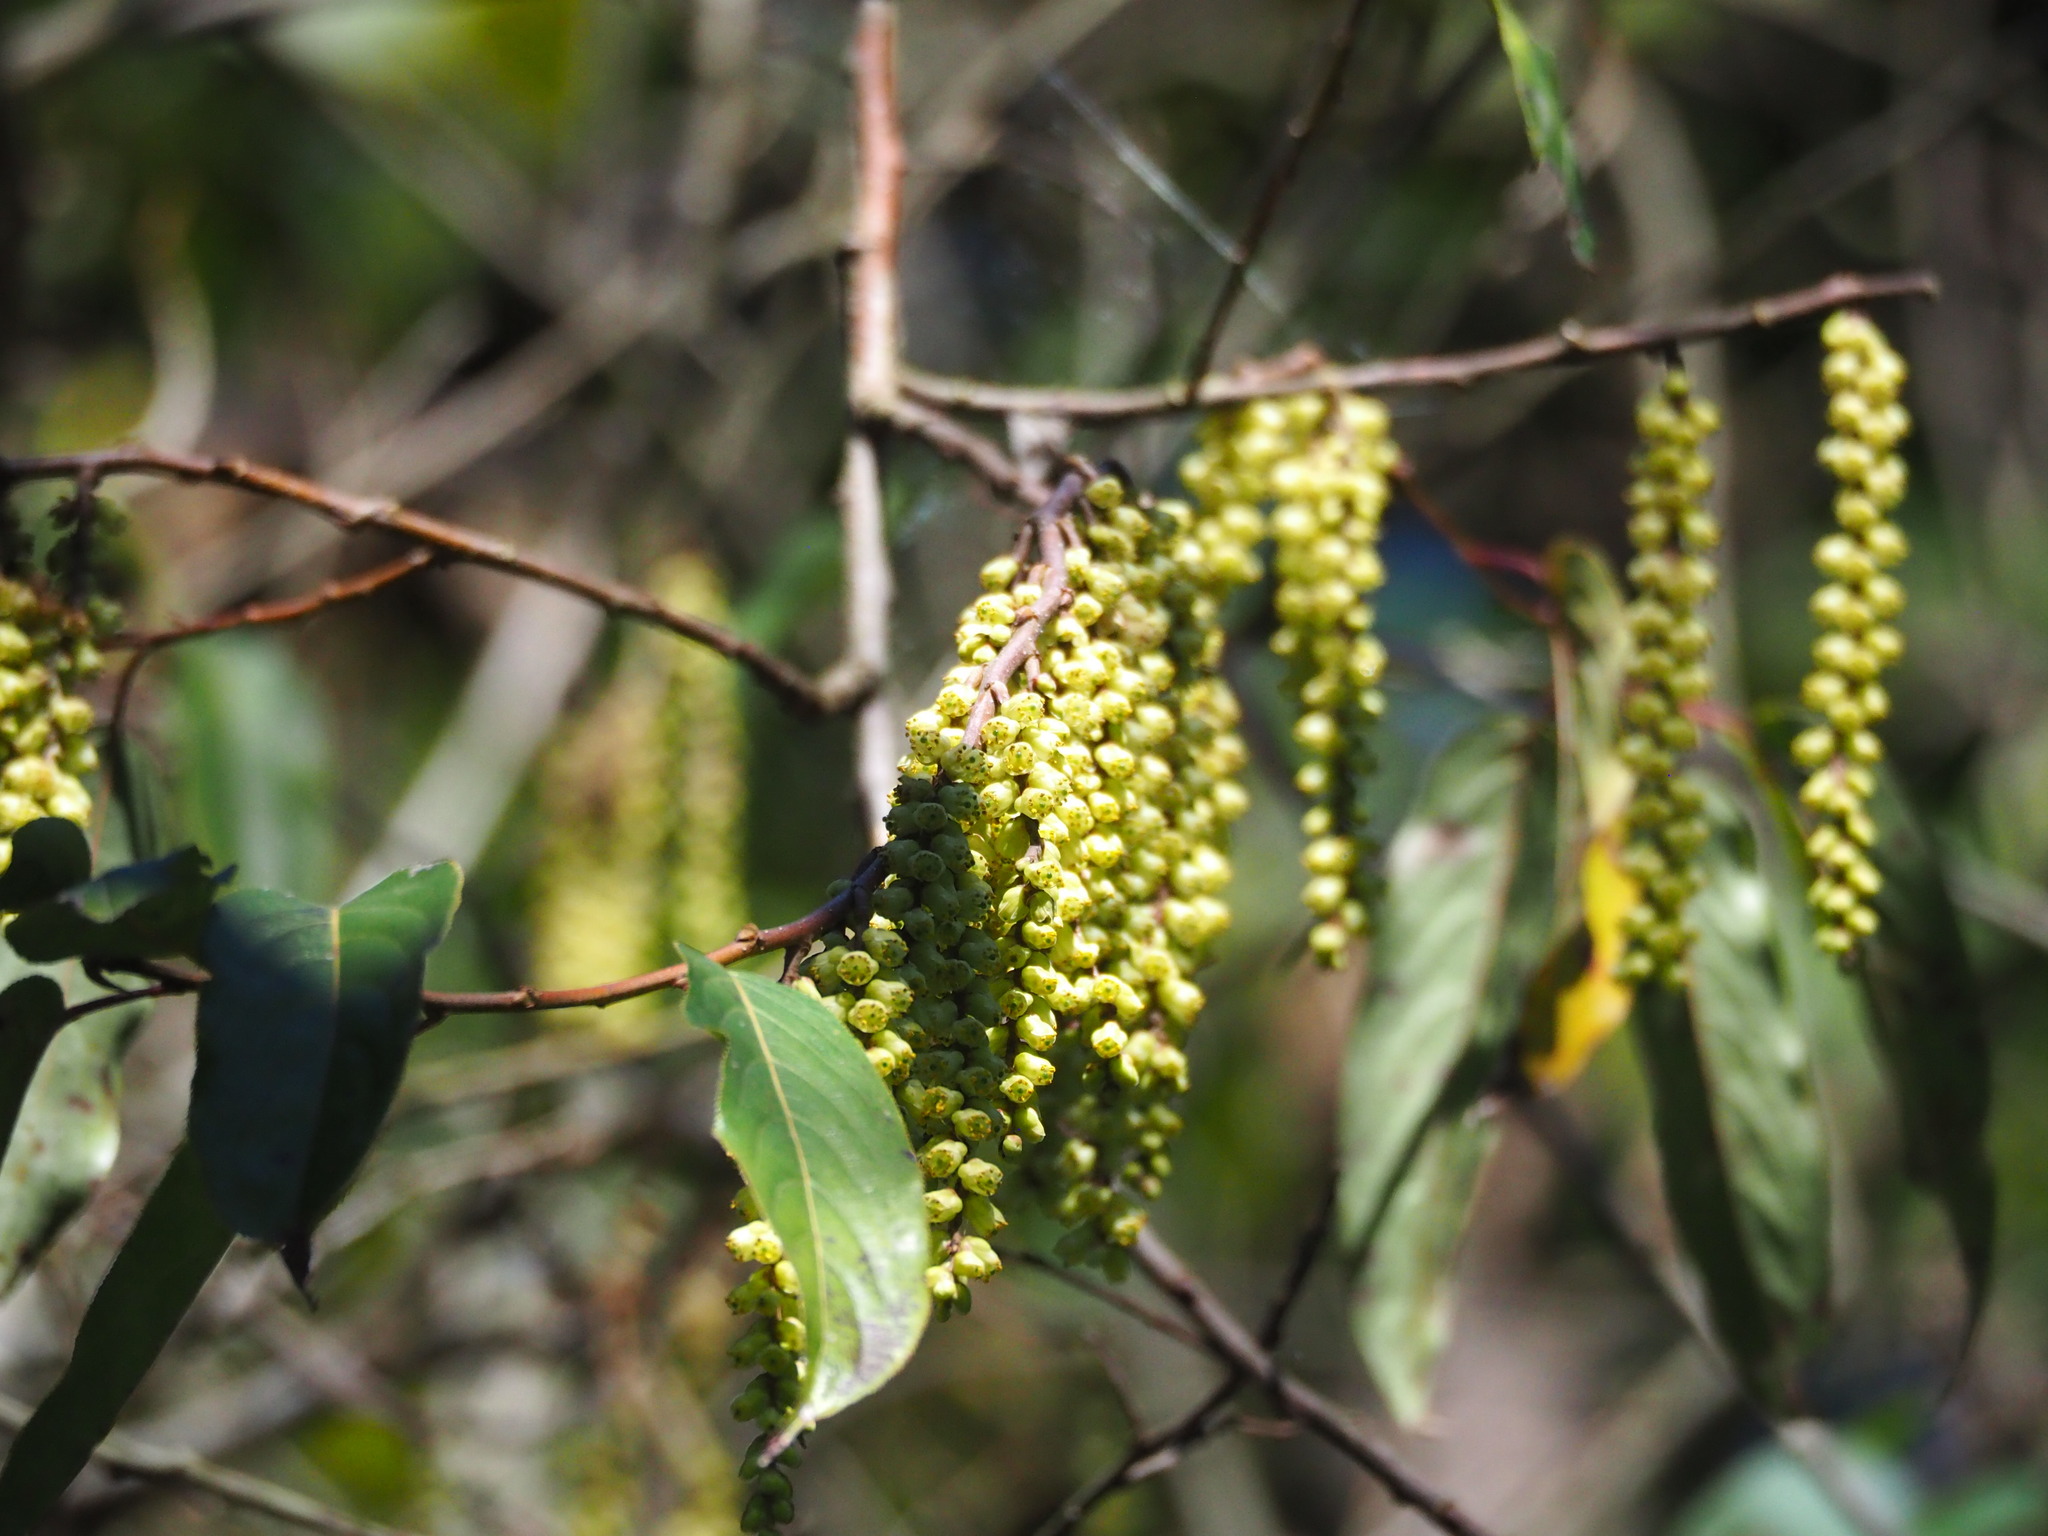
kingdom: Plantae
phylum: Tracheophyta
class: Magnoliopsida
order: Crossosomatales
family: Stachyuraceae
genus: Stachyurus
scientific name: Stachyurus himalaicus
